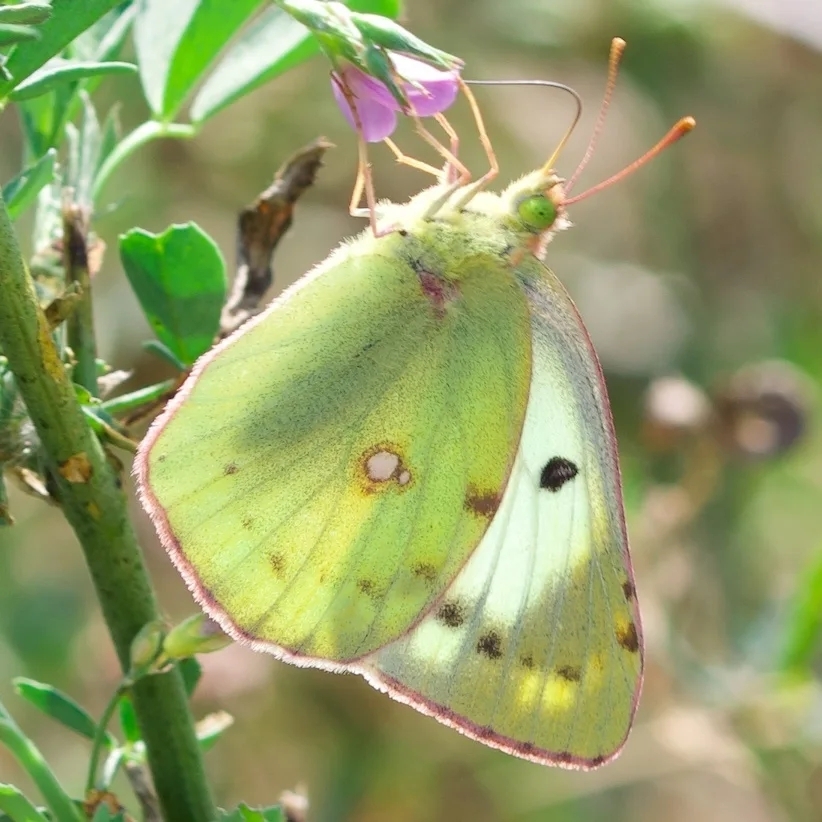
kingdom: Animalia
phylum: Arthropoda
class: Insecta
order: Lepidoptera
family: Pieridae
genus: Colias
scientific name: Colias hyale
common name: Pale clouded yellow
